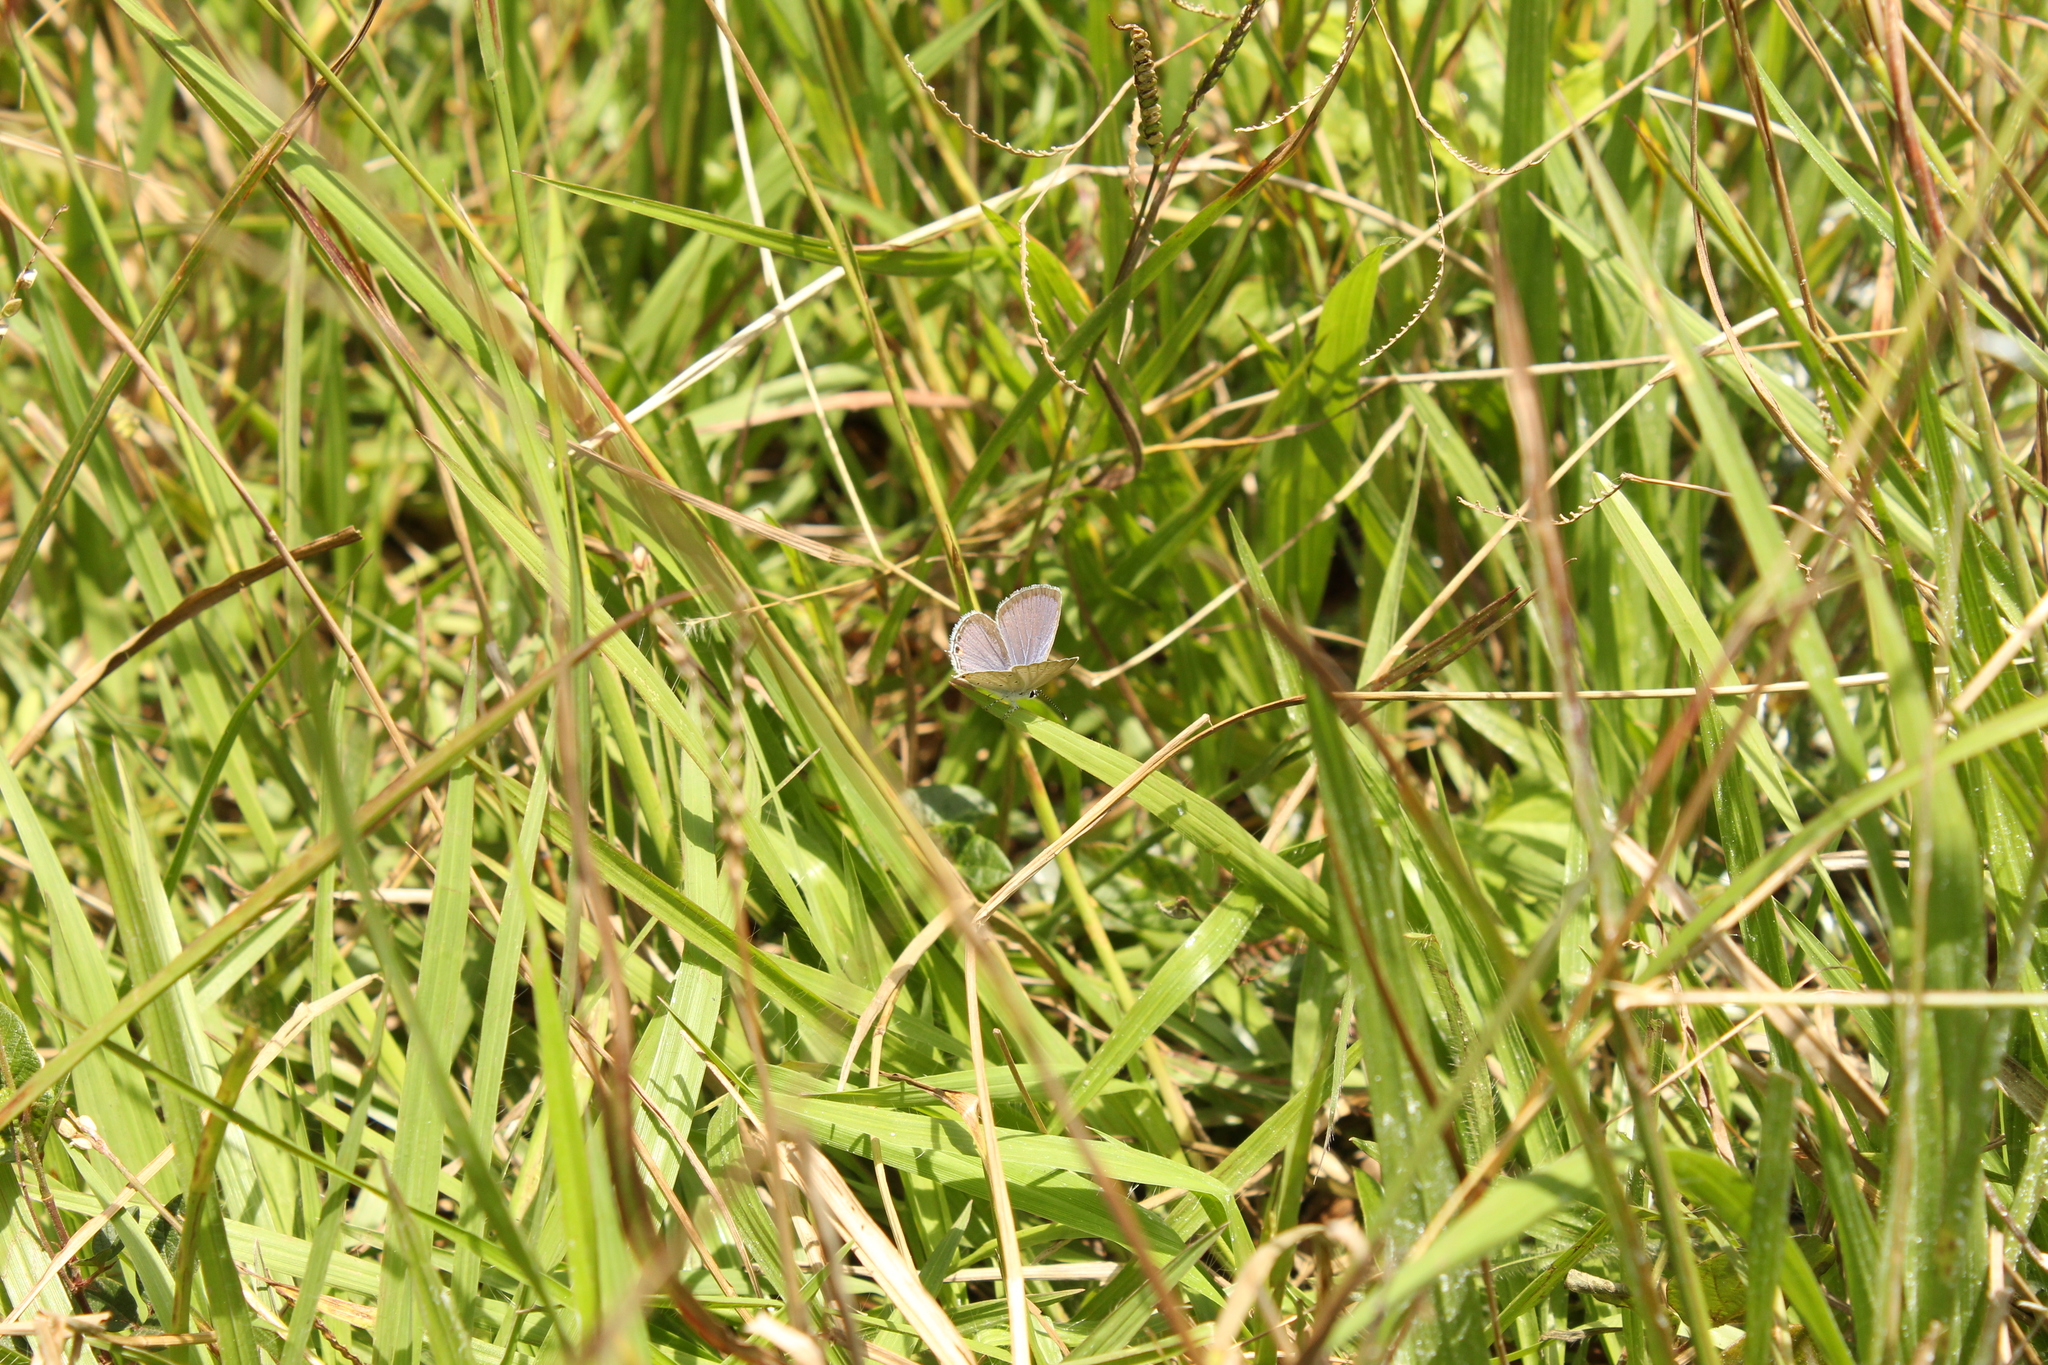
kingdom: Animalia
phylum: Arthropoda
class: Insecta
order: Lepidoptera
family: Lycaenidae
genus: Elkalyce
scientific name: Elkalyce texana
